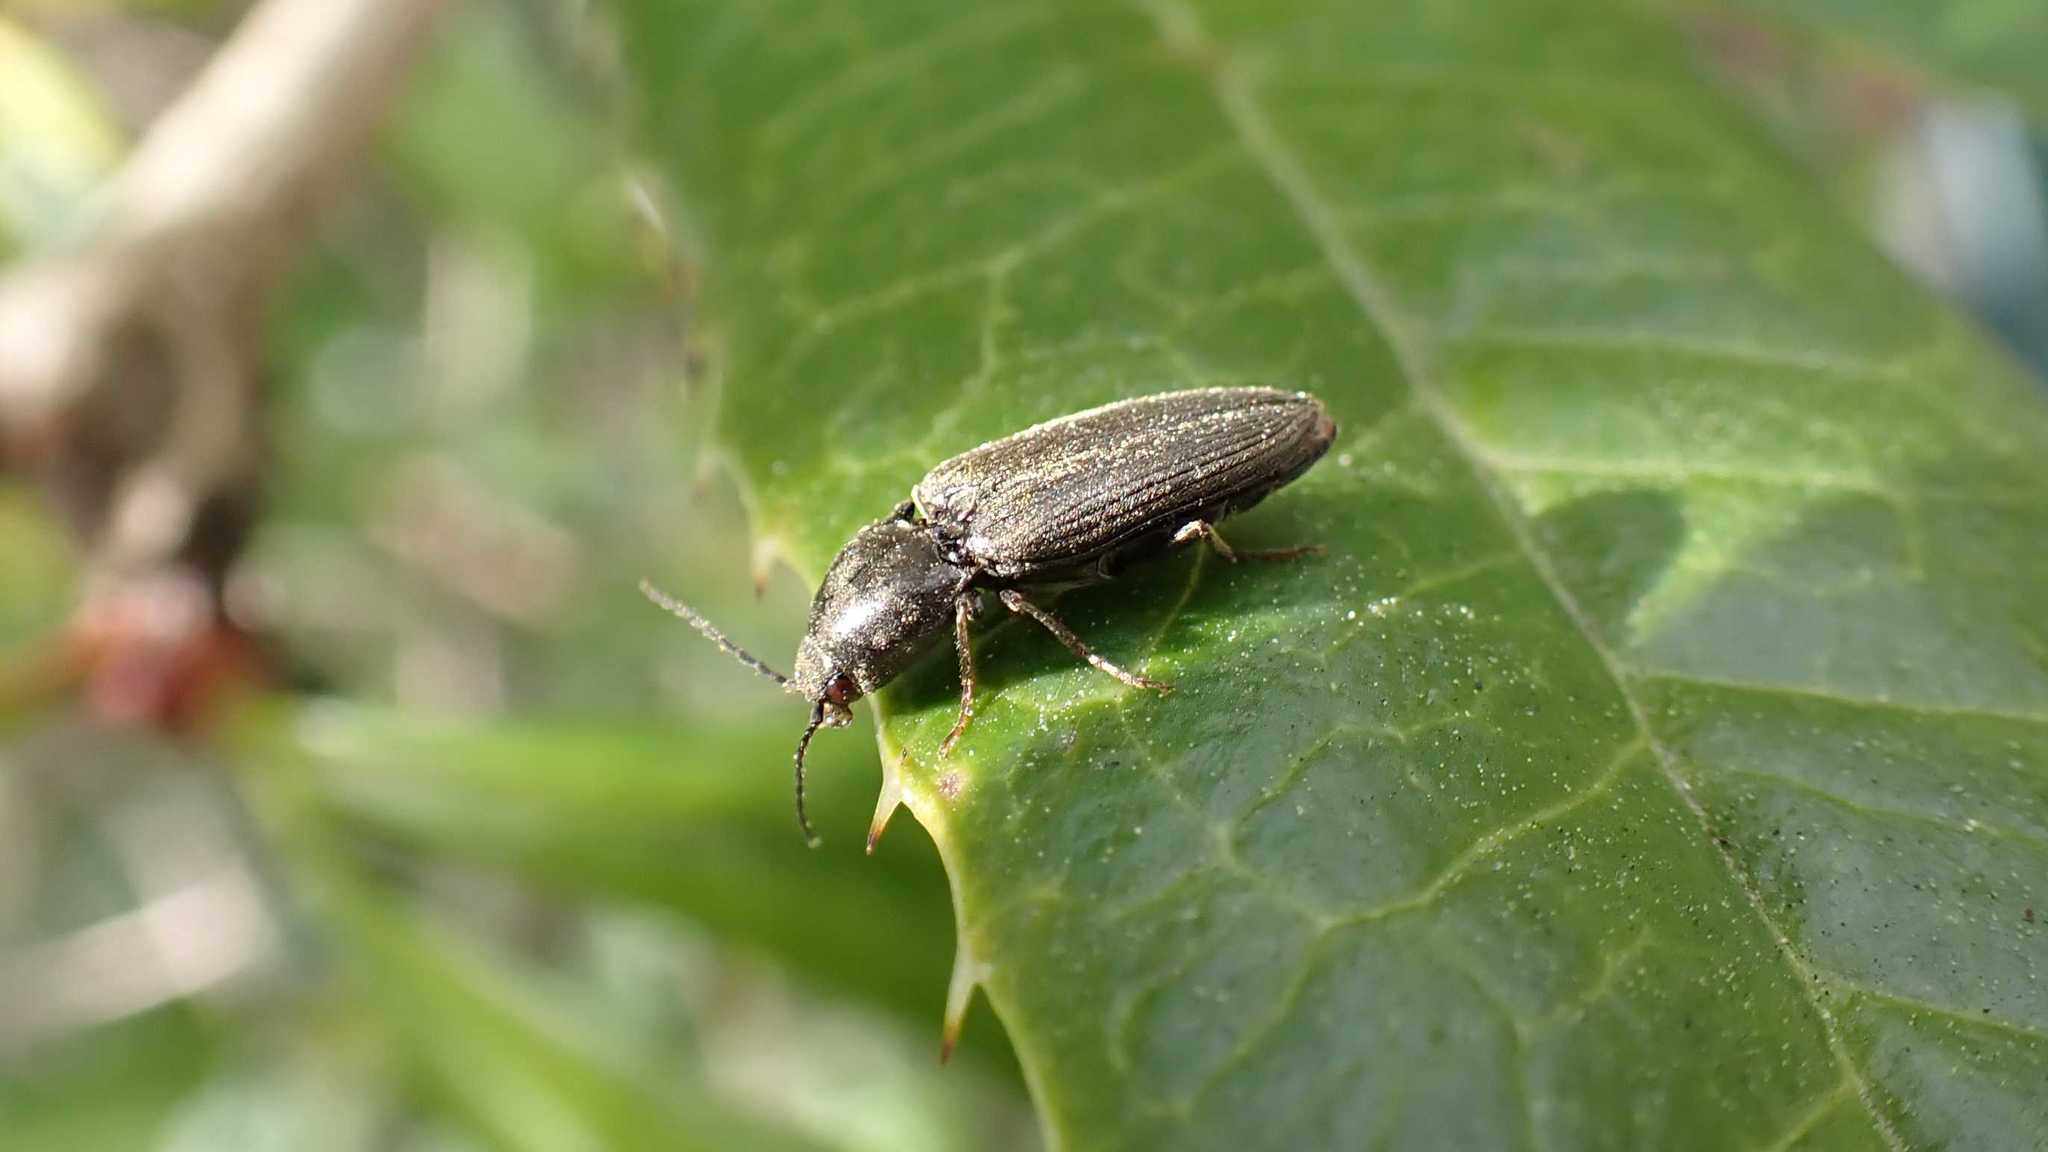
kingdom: Animalia
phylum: Arthropoda
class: Insecta
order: Coleoptera
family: Elateridae
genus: Dicronychus
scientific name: Dicronychus
